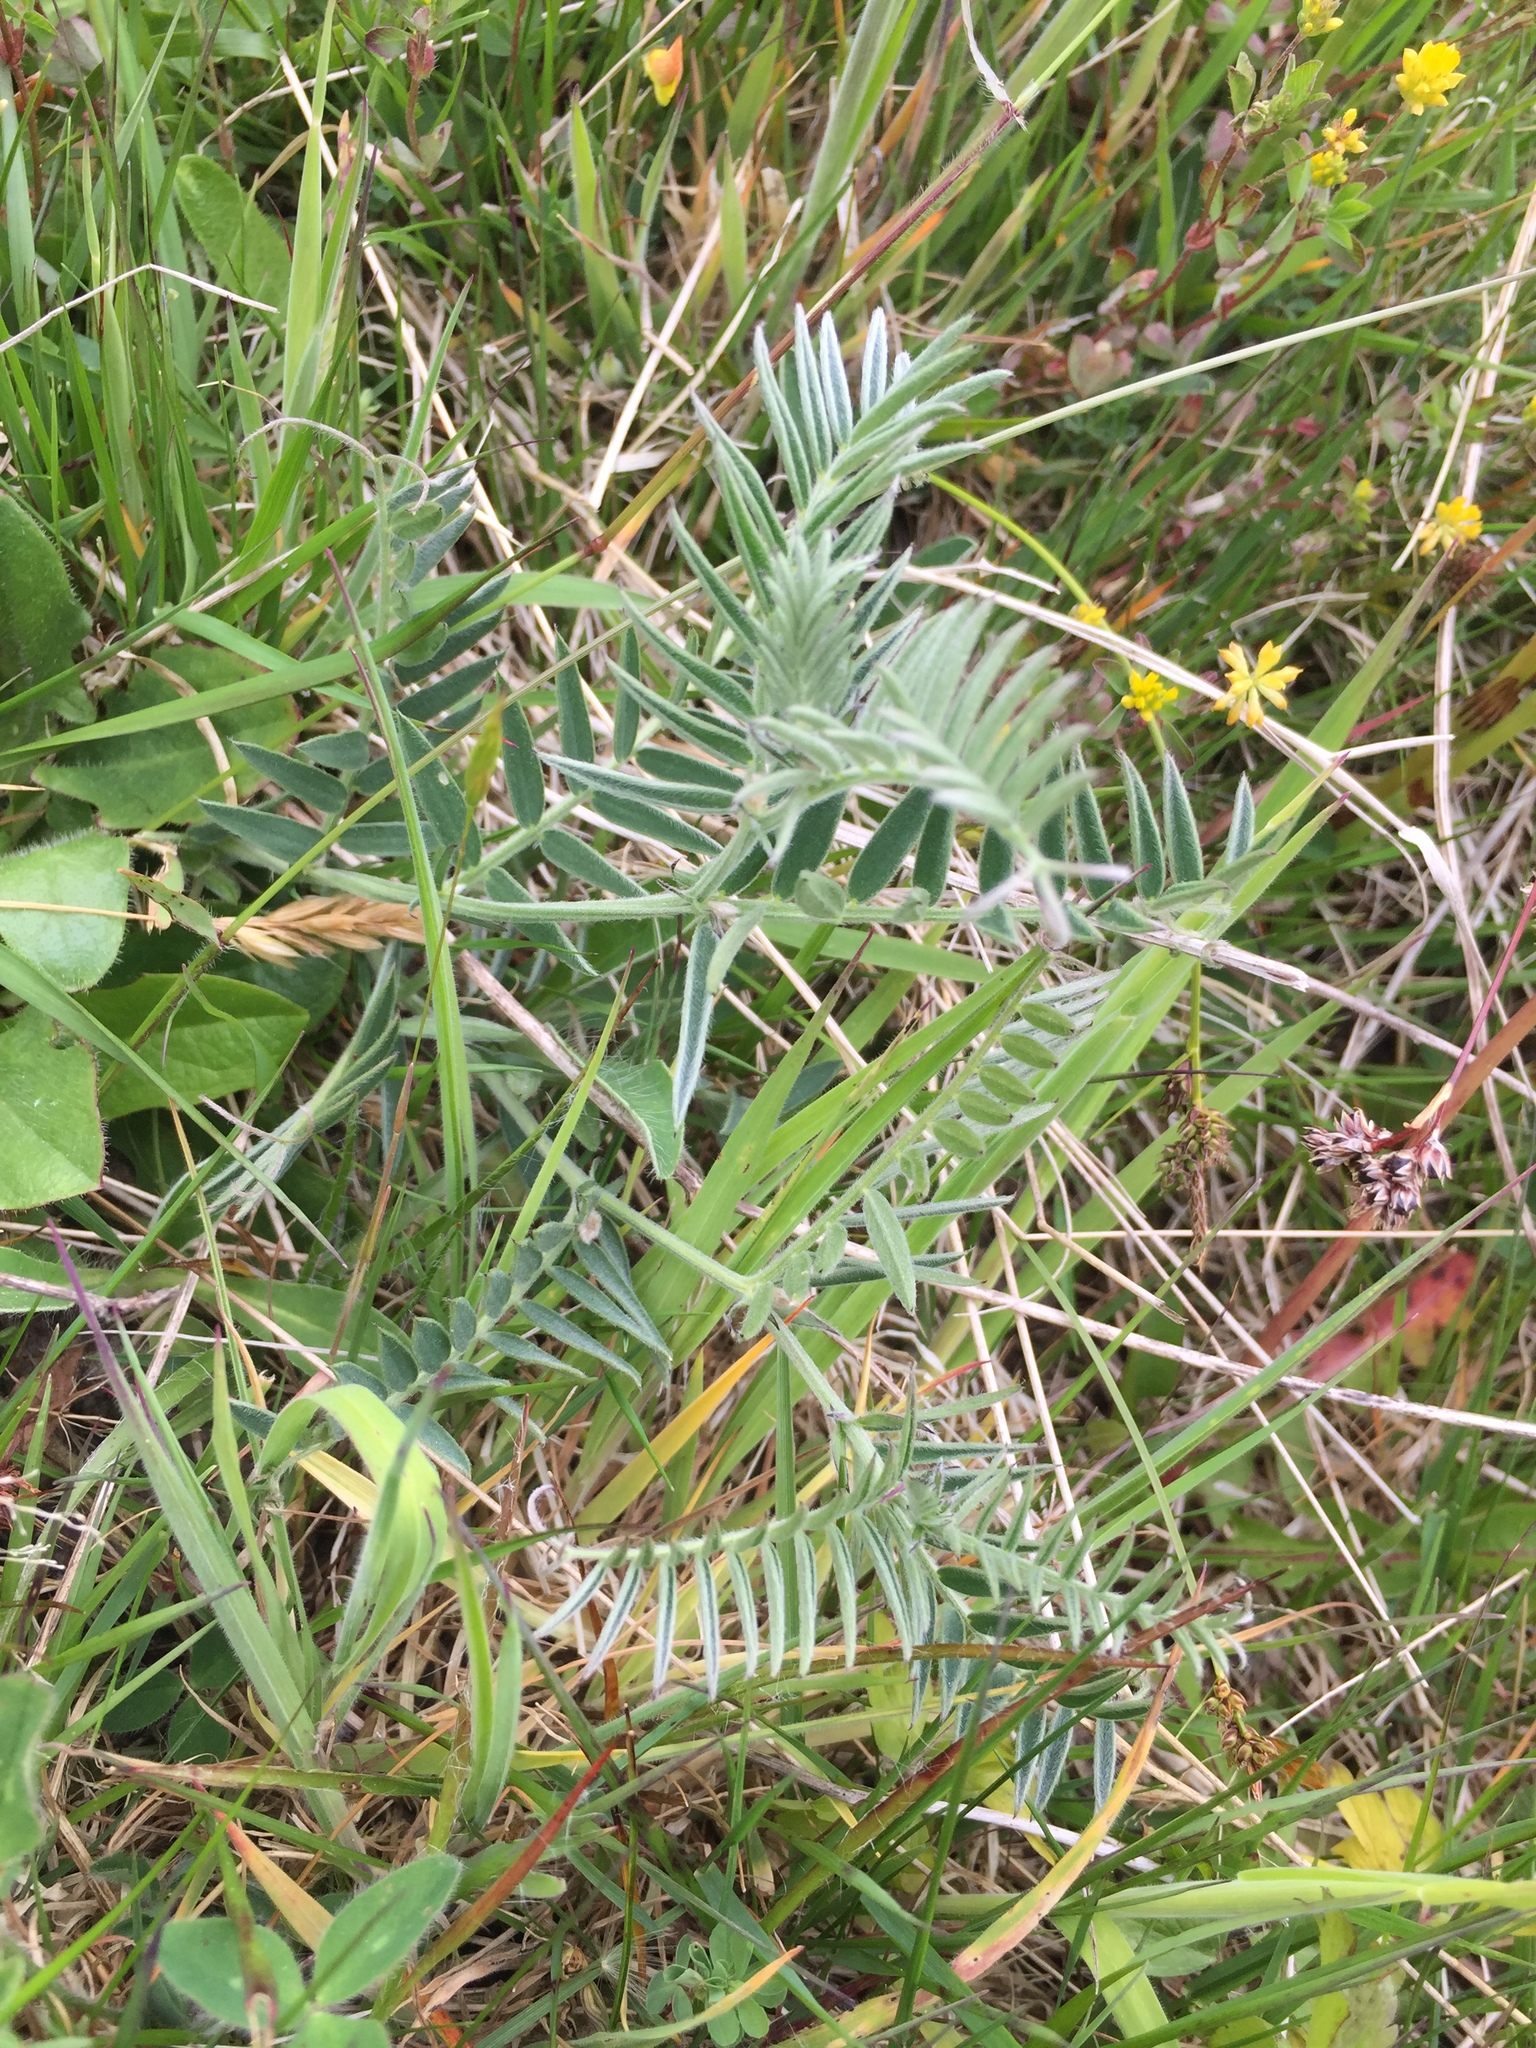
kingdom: Plantae
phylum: Tracheophyta
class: Magnoliopsida
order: Fabales
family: Fabaceae
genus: Vicia
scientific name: Vicia cracca
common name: Bird vetch
